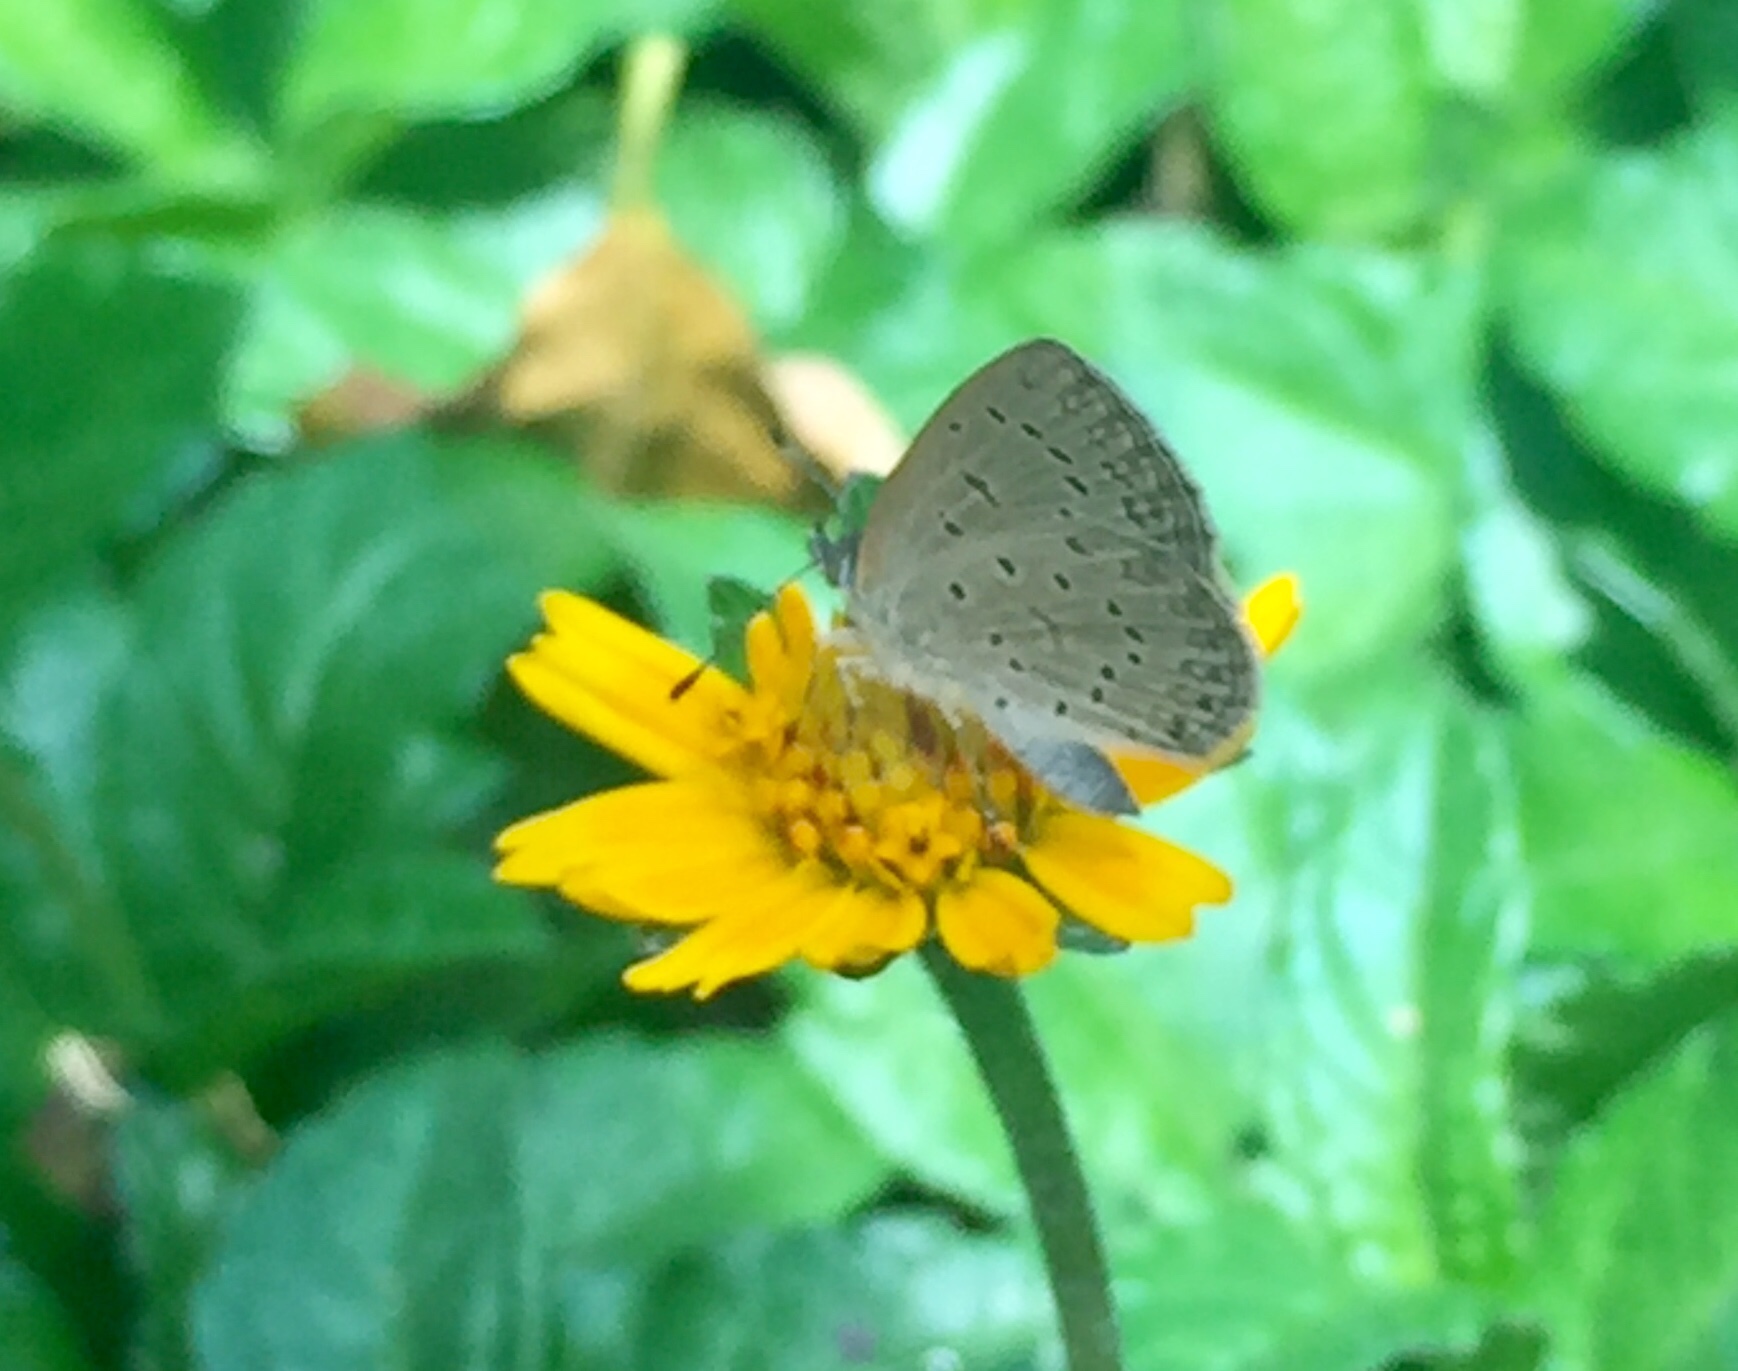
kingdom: Animalia
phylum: Arthropoda
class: Insecta
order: Lepidoptera
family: Lycaenidae
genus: Zizeeria
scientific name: Zizeeria knysna
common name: African grass blue
